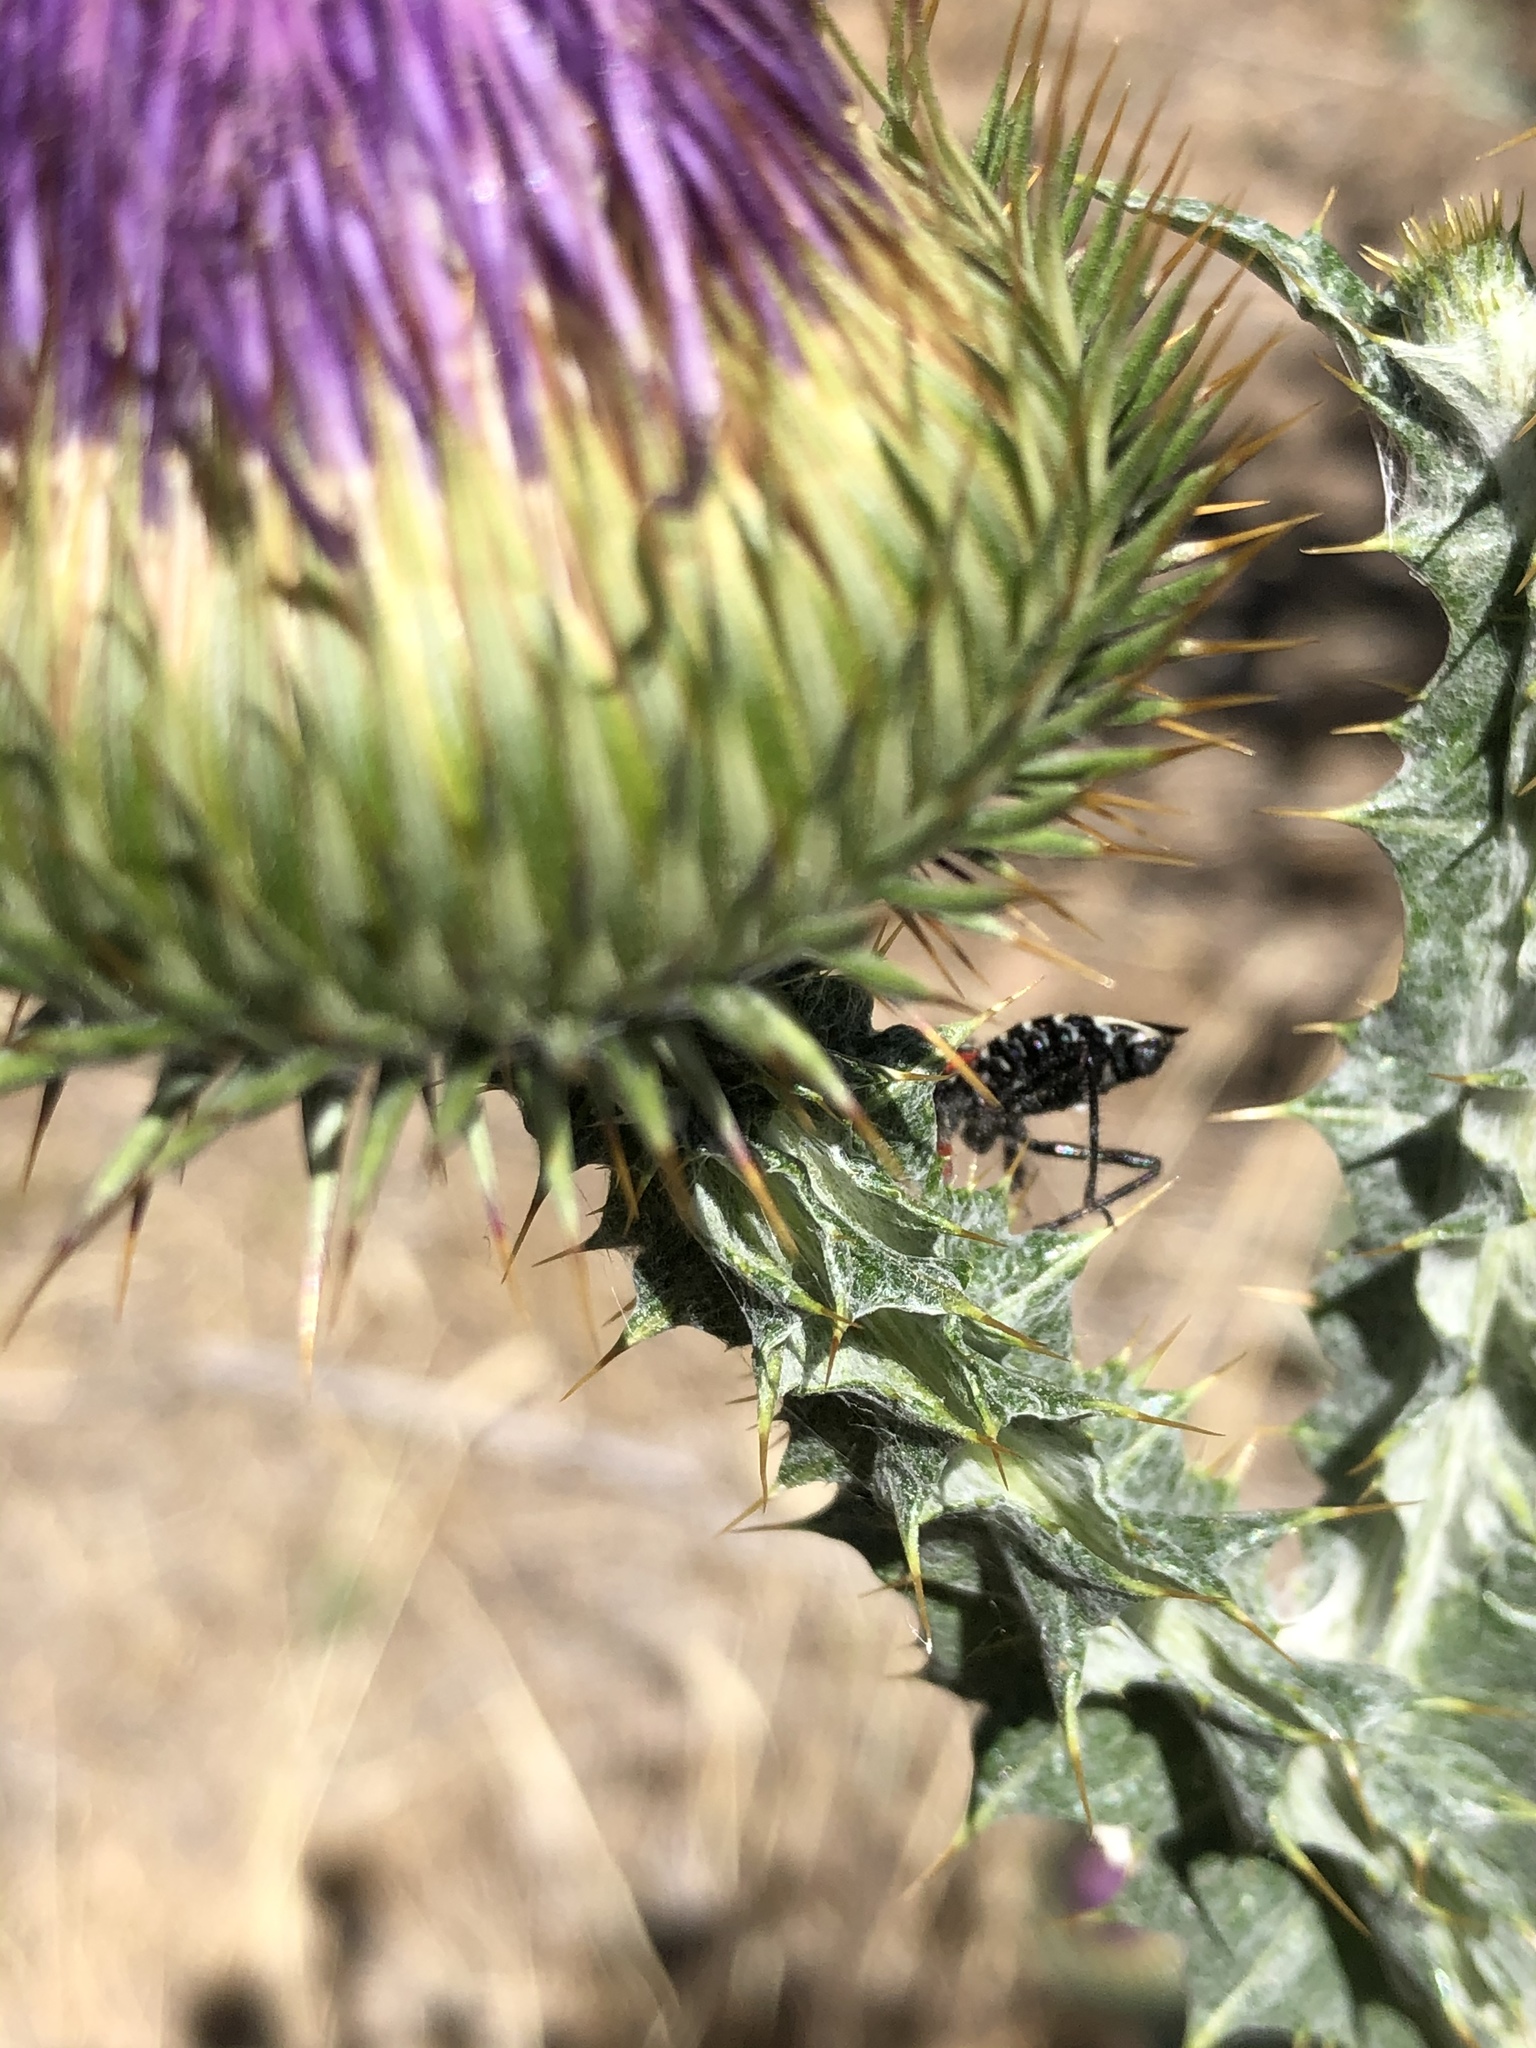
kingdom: Animalia
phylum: Arthropoda
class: Insecta
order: Hemiptera
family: Reduviidae
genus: Apiomerus
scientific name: Apiomerus montanus
